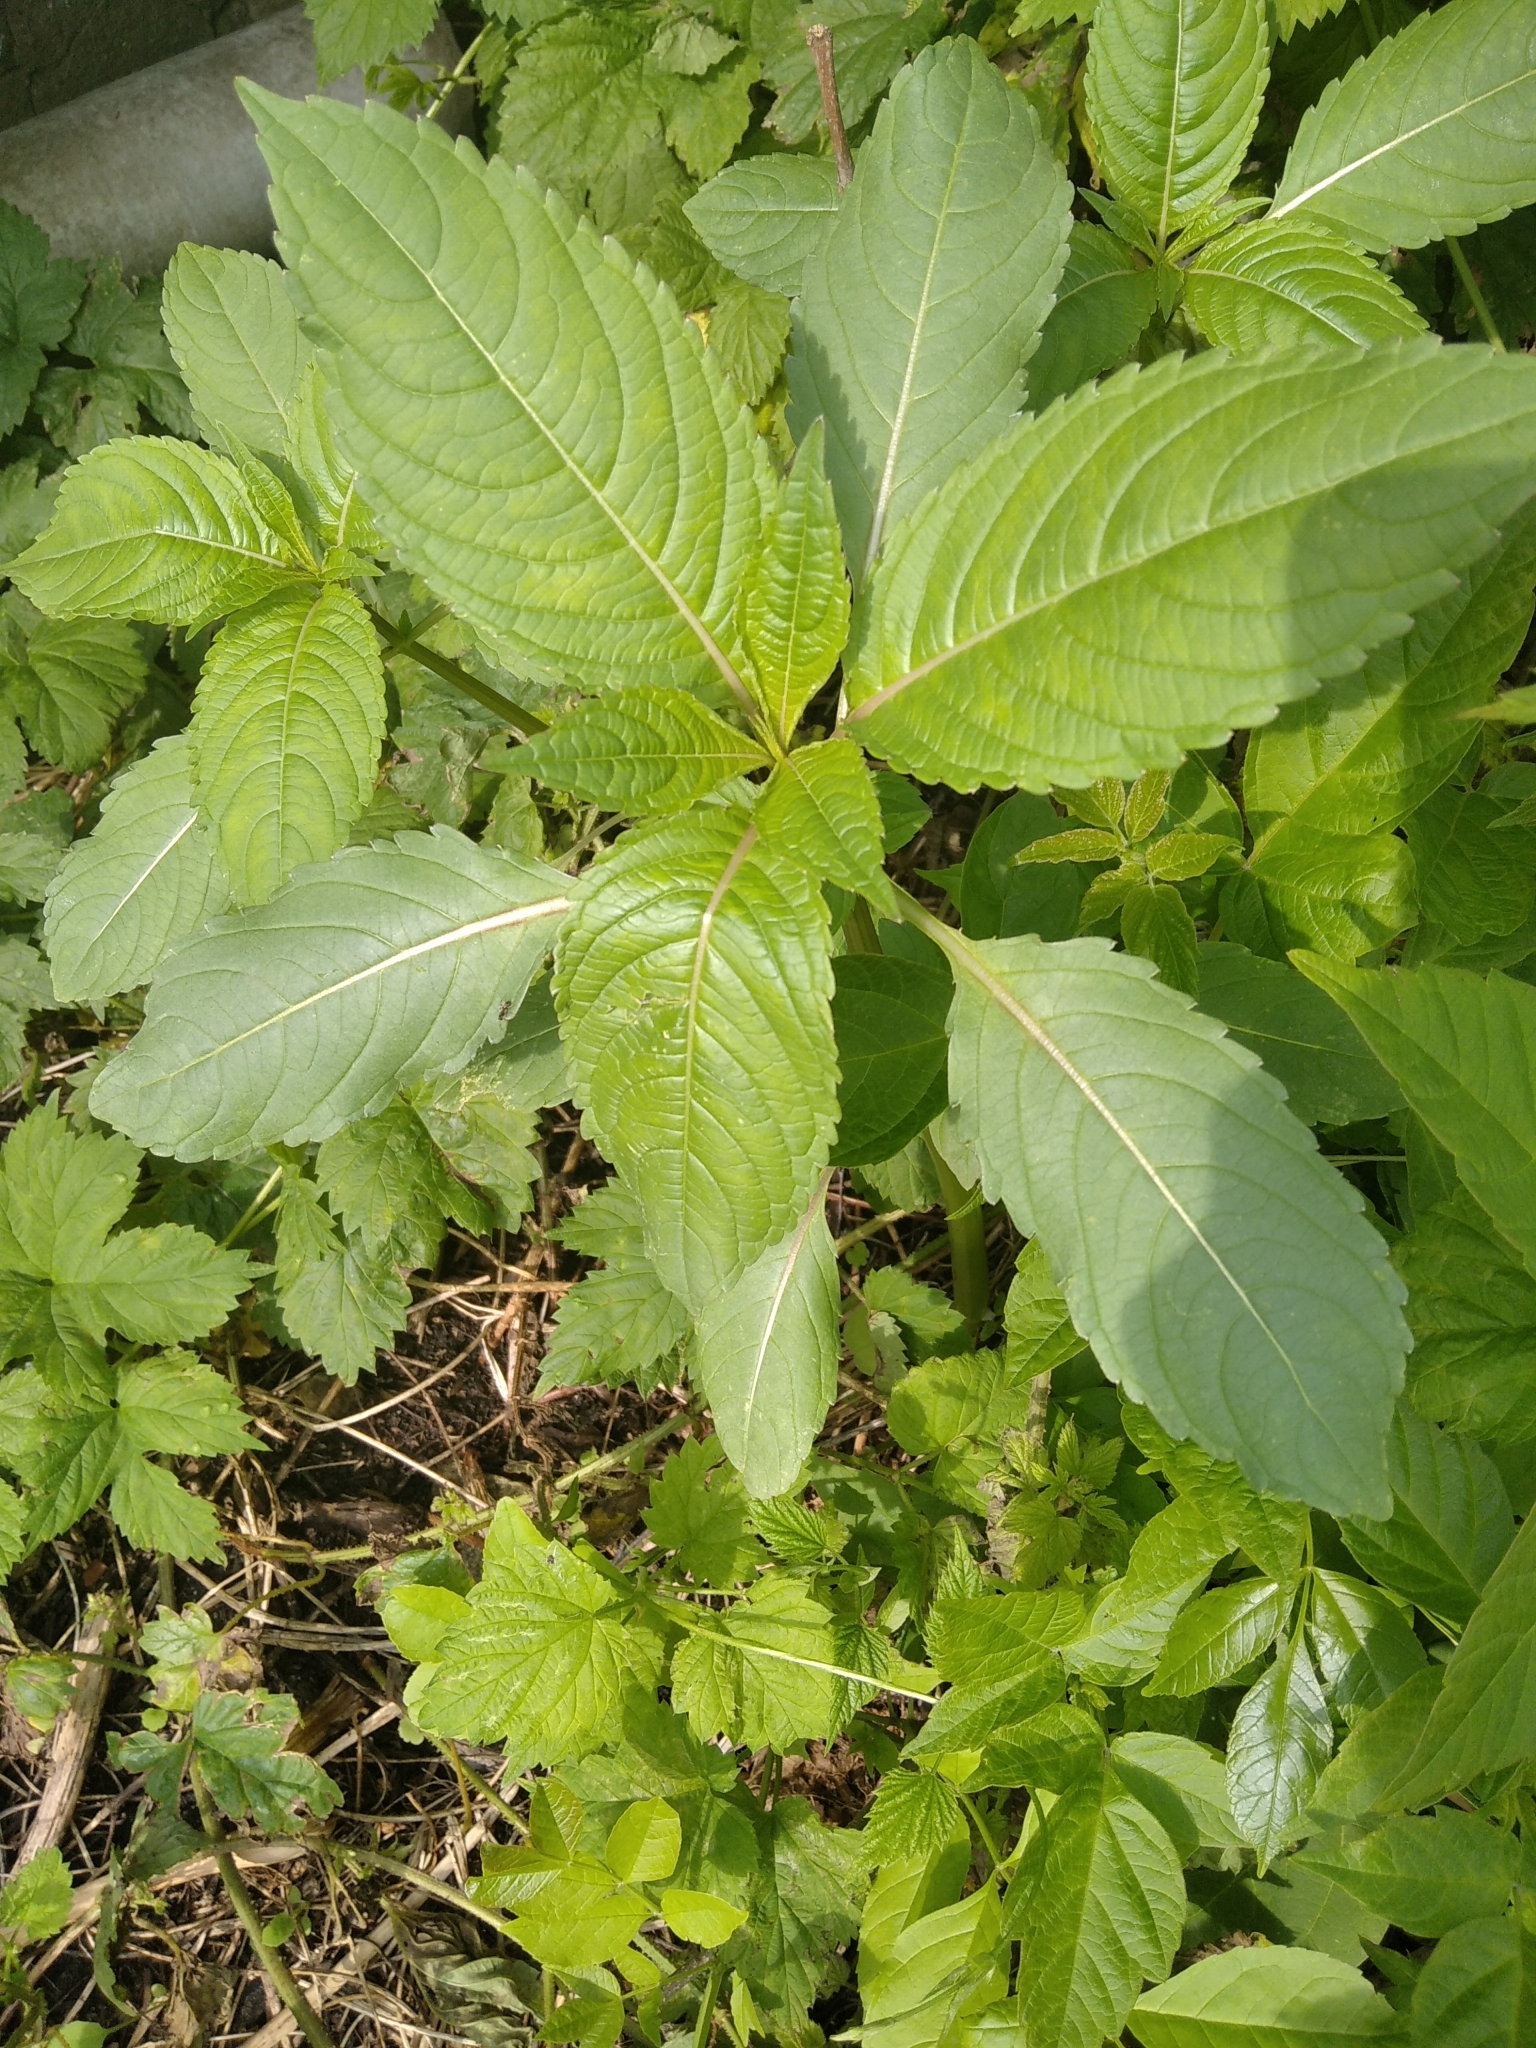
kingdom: Plantae
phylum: Tracheophyta
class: Magnoliopsida
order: Ericales
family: Balsaminaceae
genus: Impatiens
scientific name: Impatiens glandulifera
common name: Himalayan balsam
